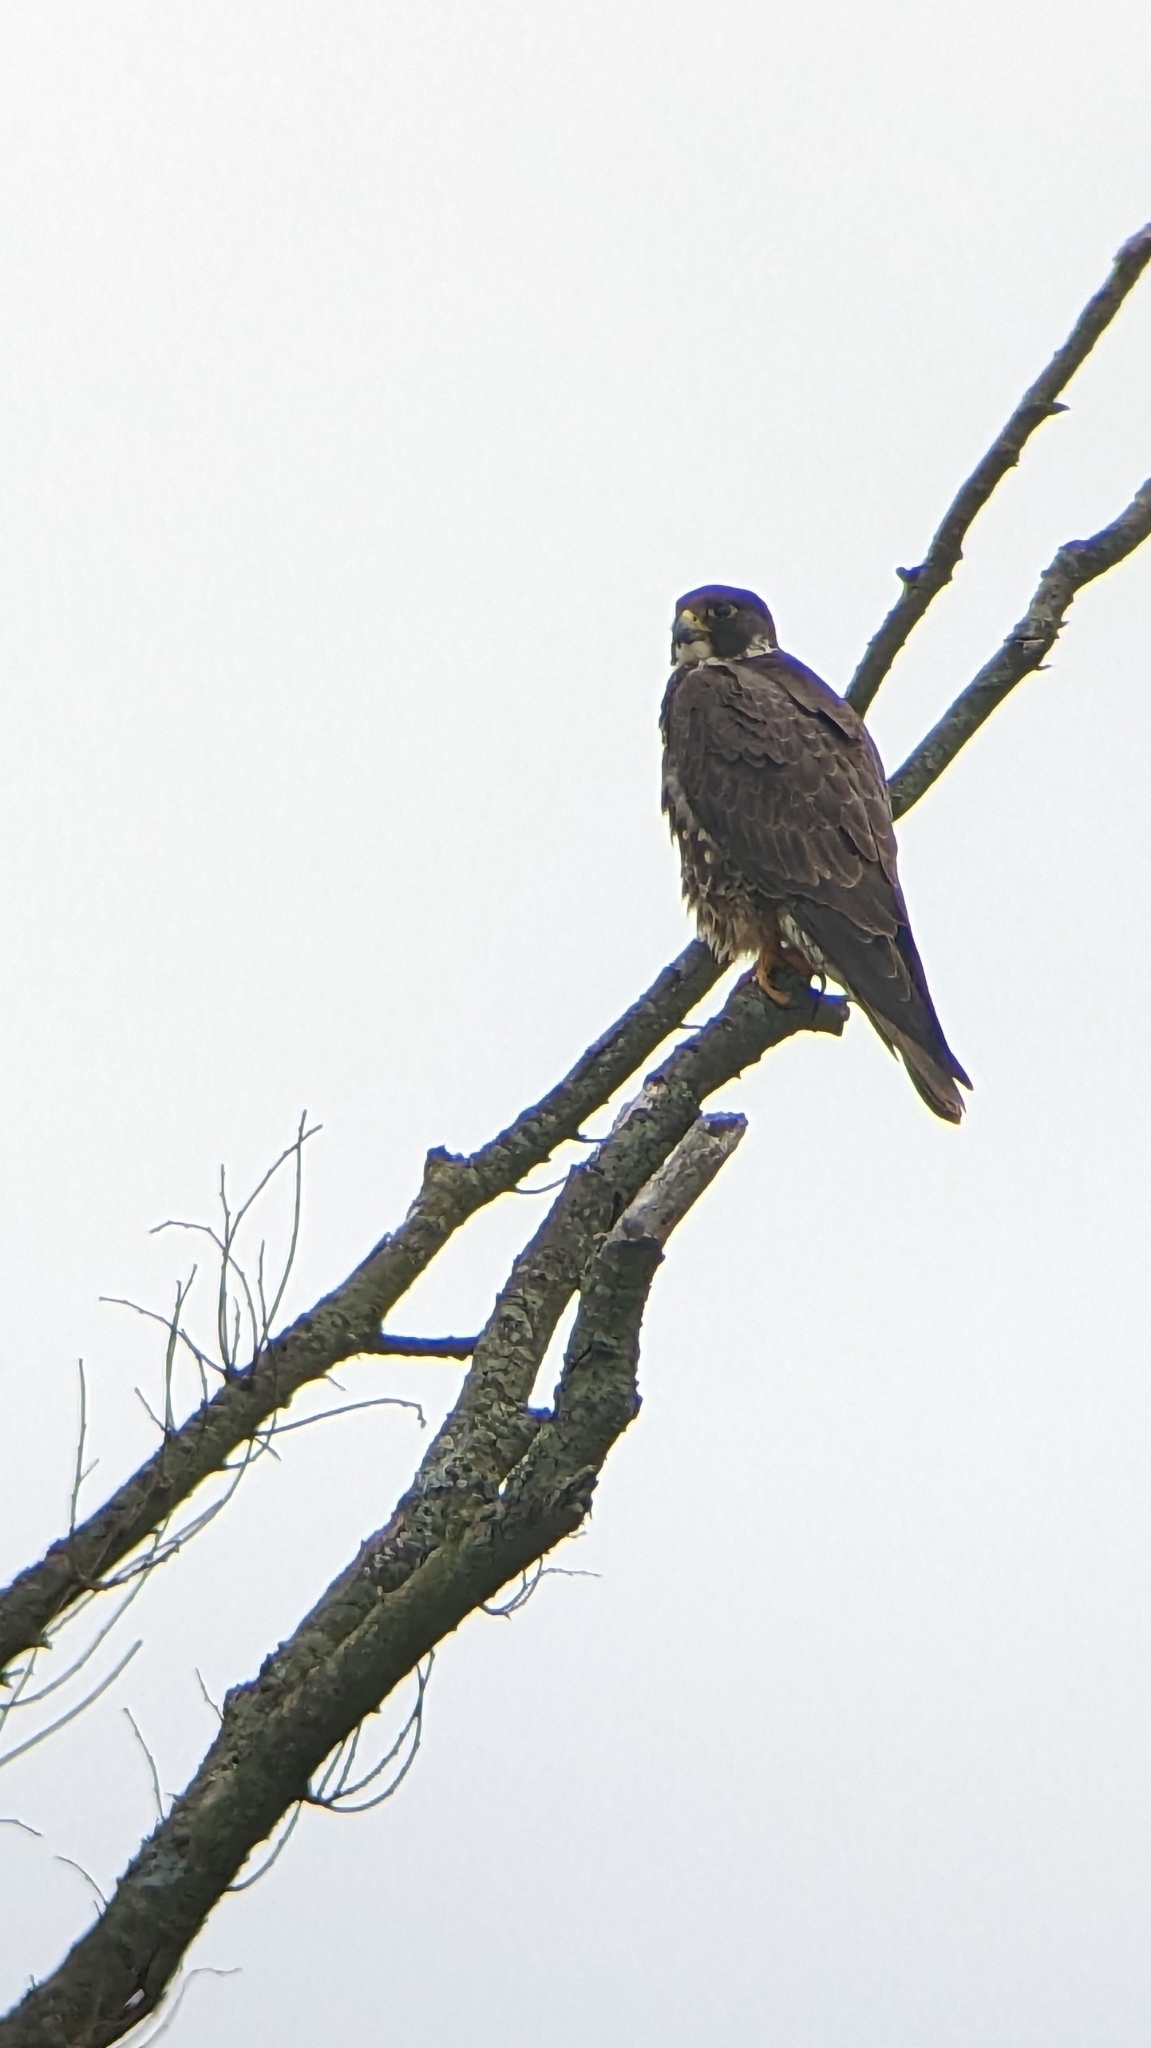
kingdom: Animalia
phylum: Chordata
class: Aves
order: Falconiformes
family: Falconidae
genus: Falco
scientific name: Falco peregrinus
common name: Peregrine falcon
